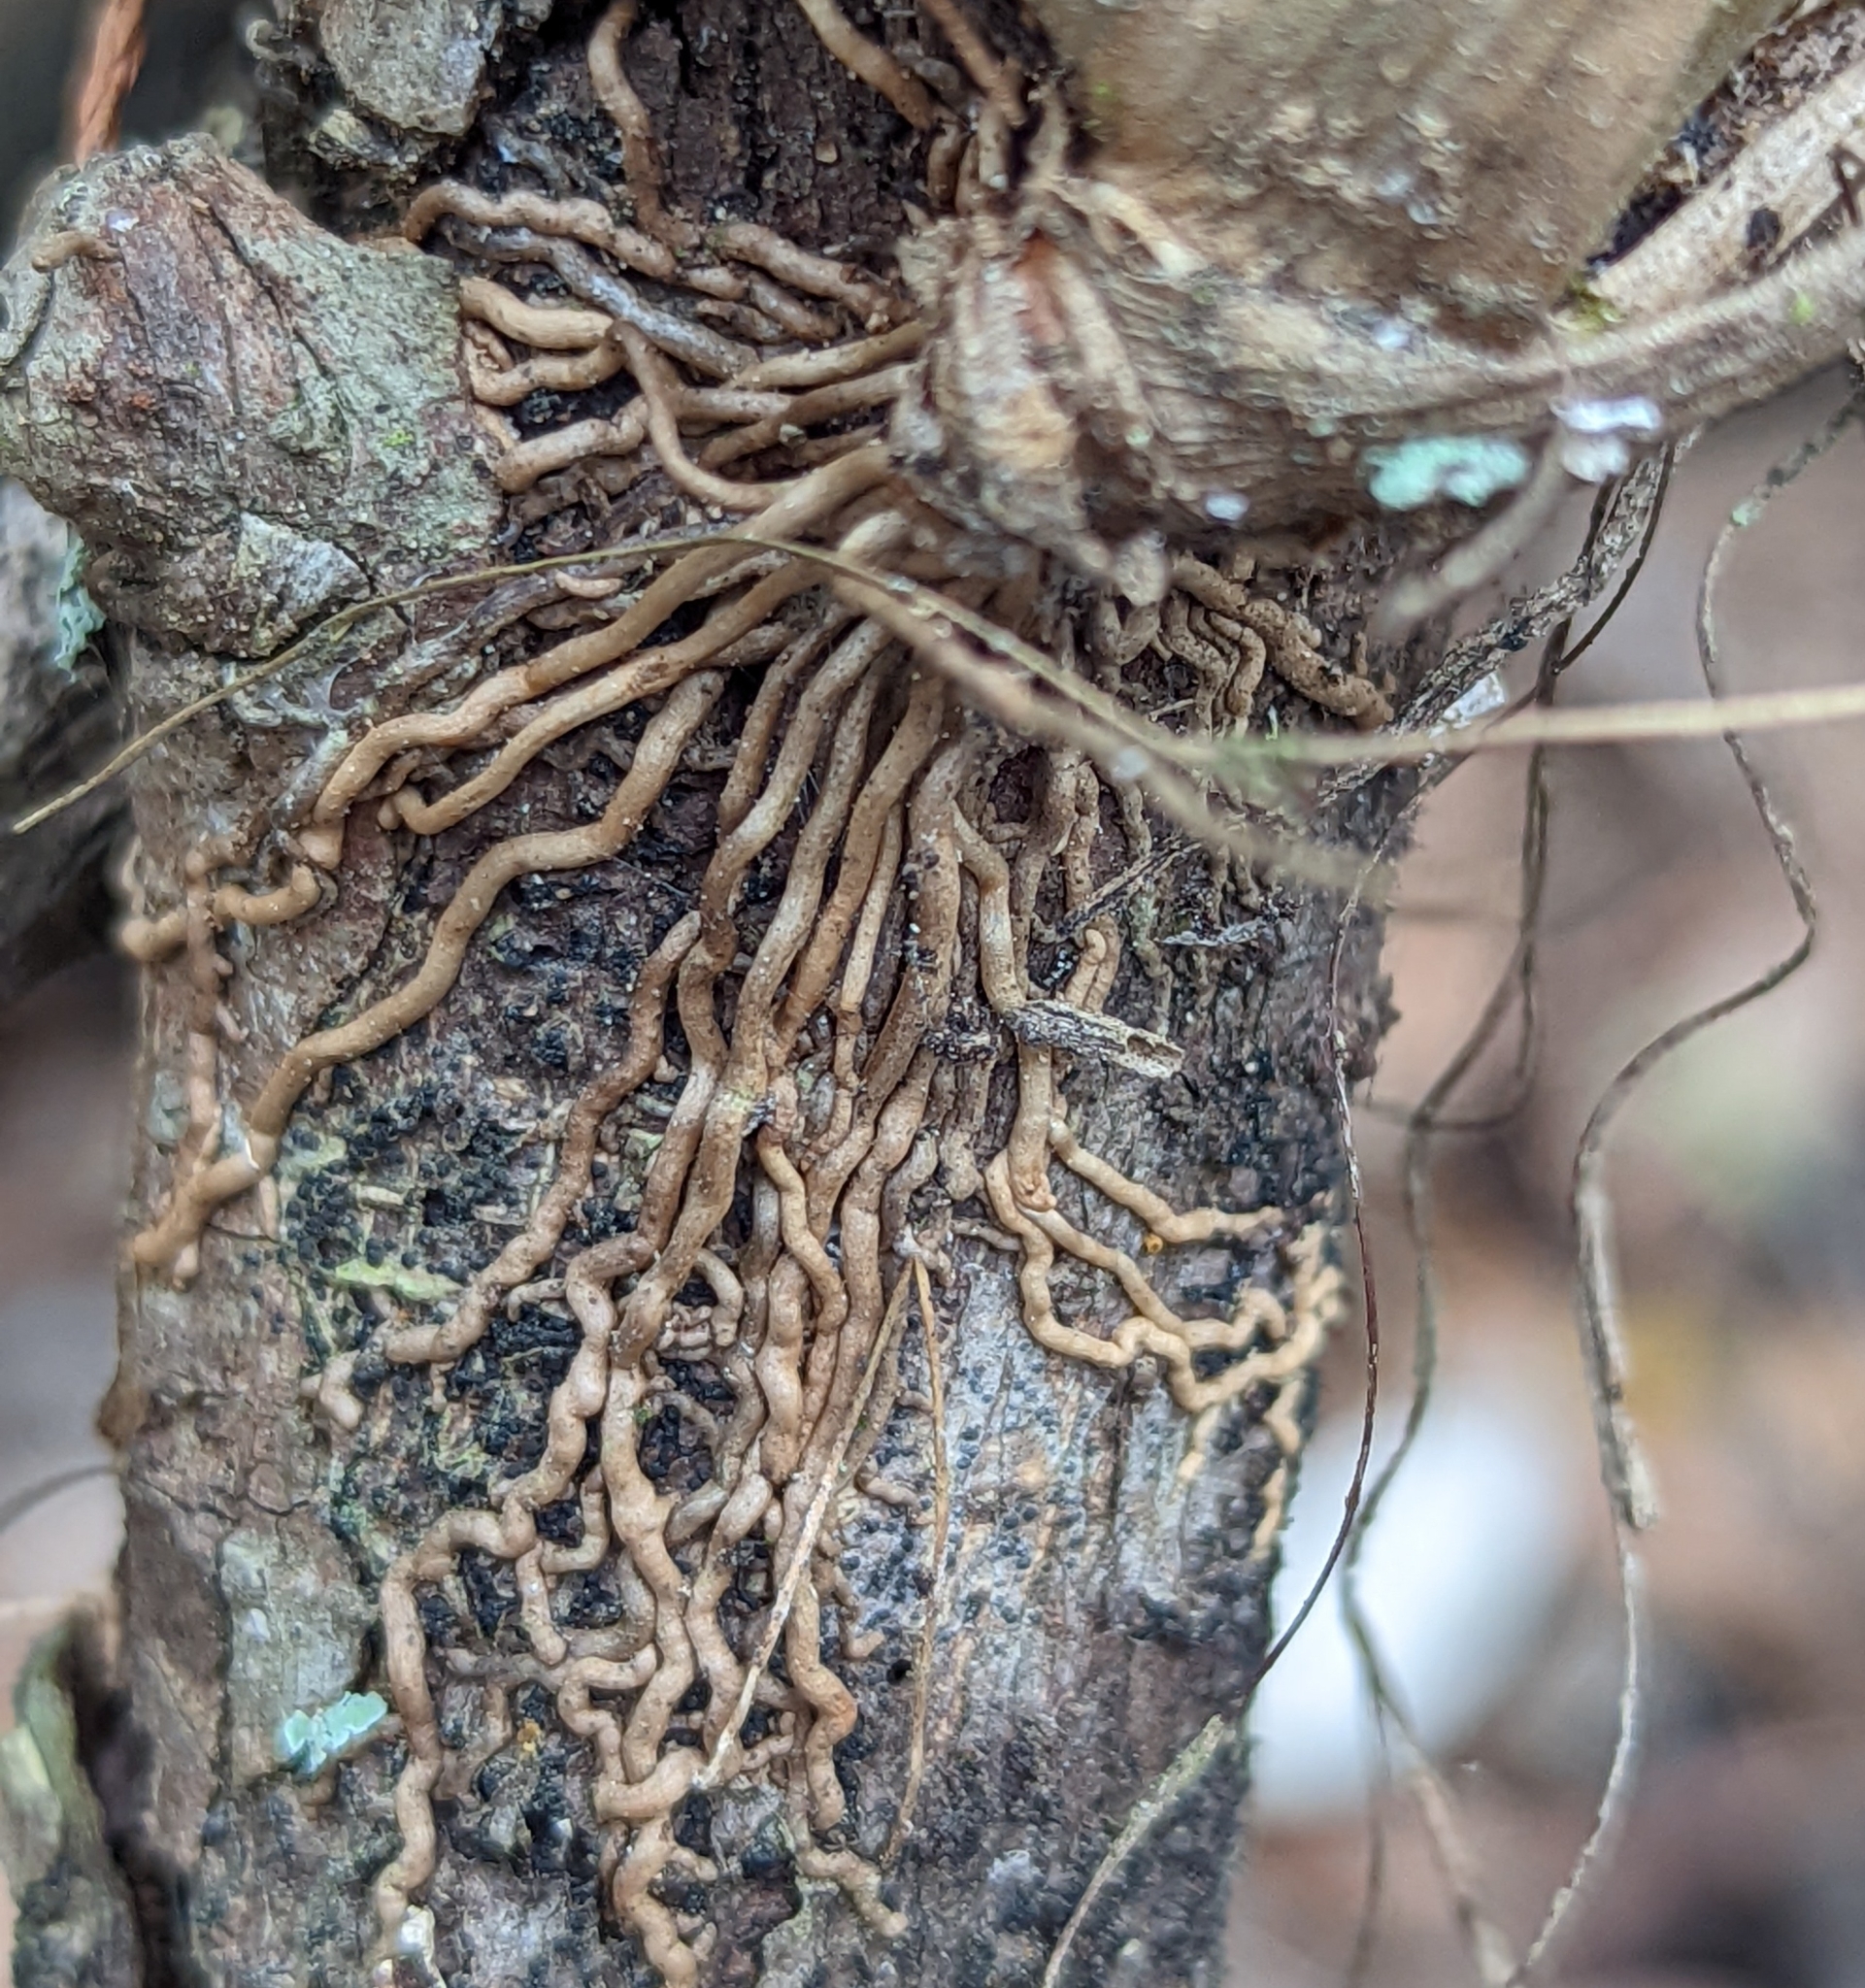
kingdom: Plantae
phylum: Tracheophyta
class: Liliopsida
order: Poales
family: Bromeliaceae
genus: Tillandsia
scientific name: Tillandsia simulata
